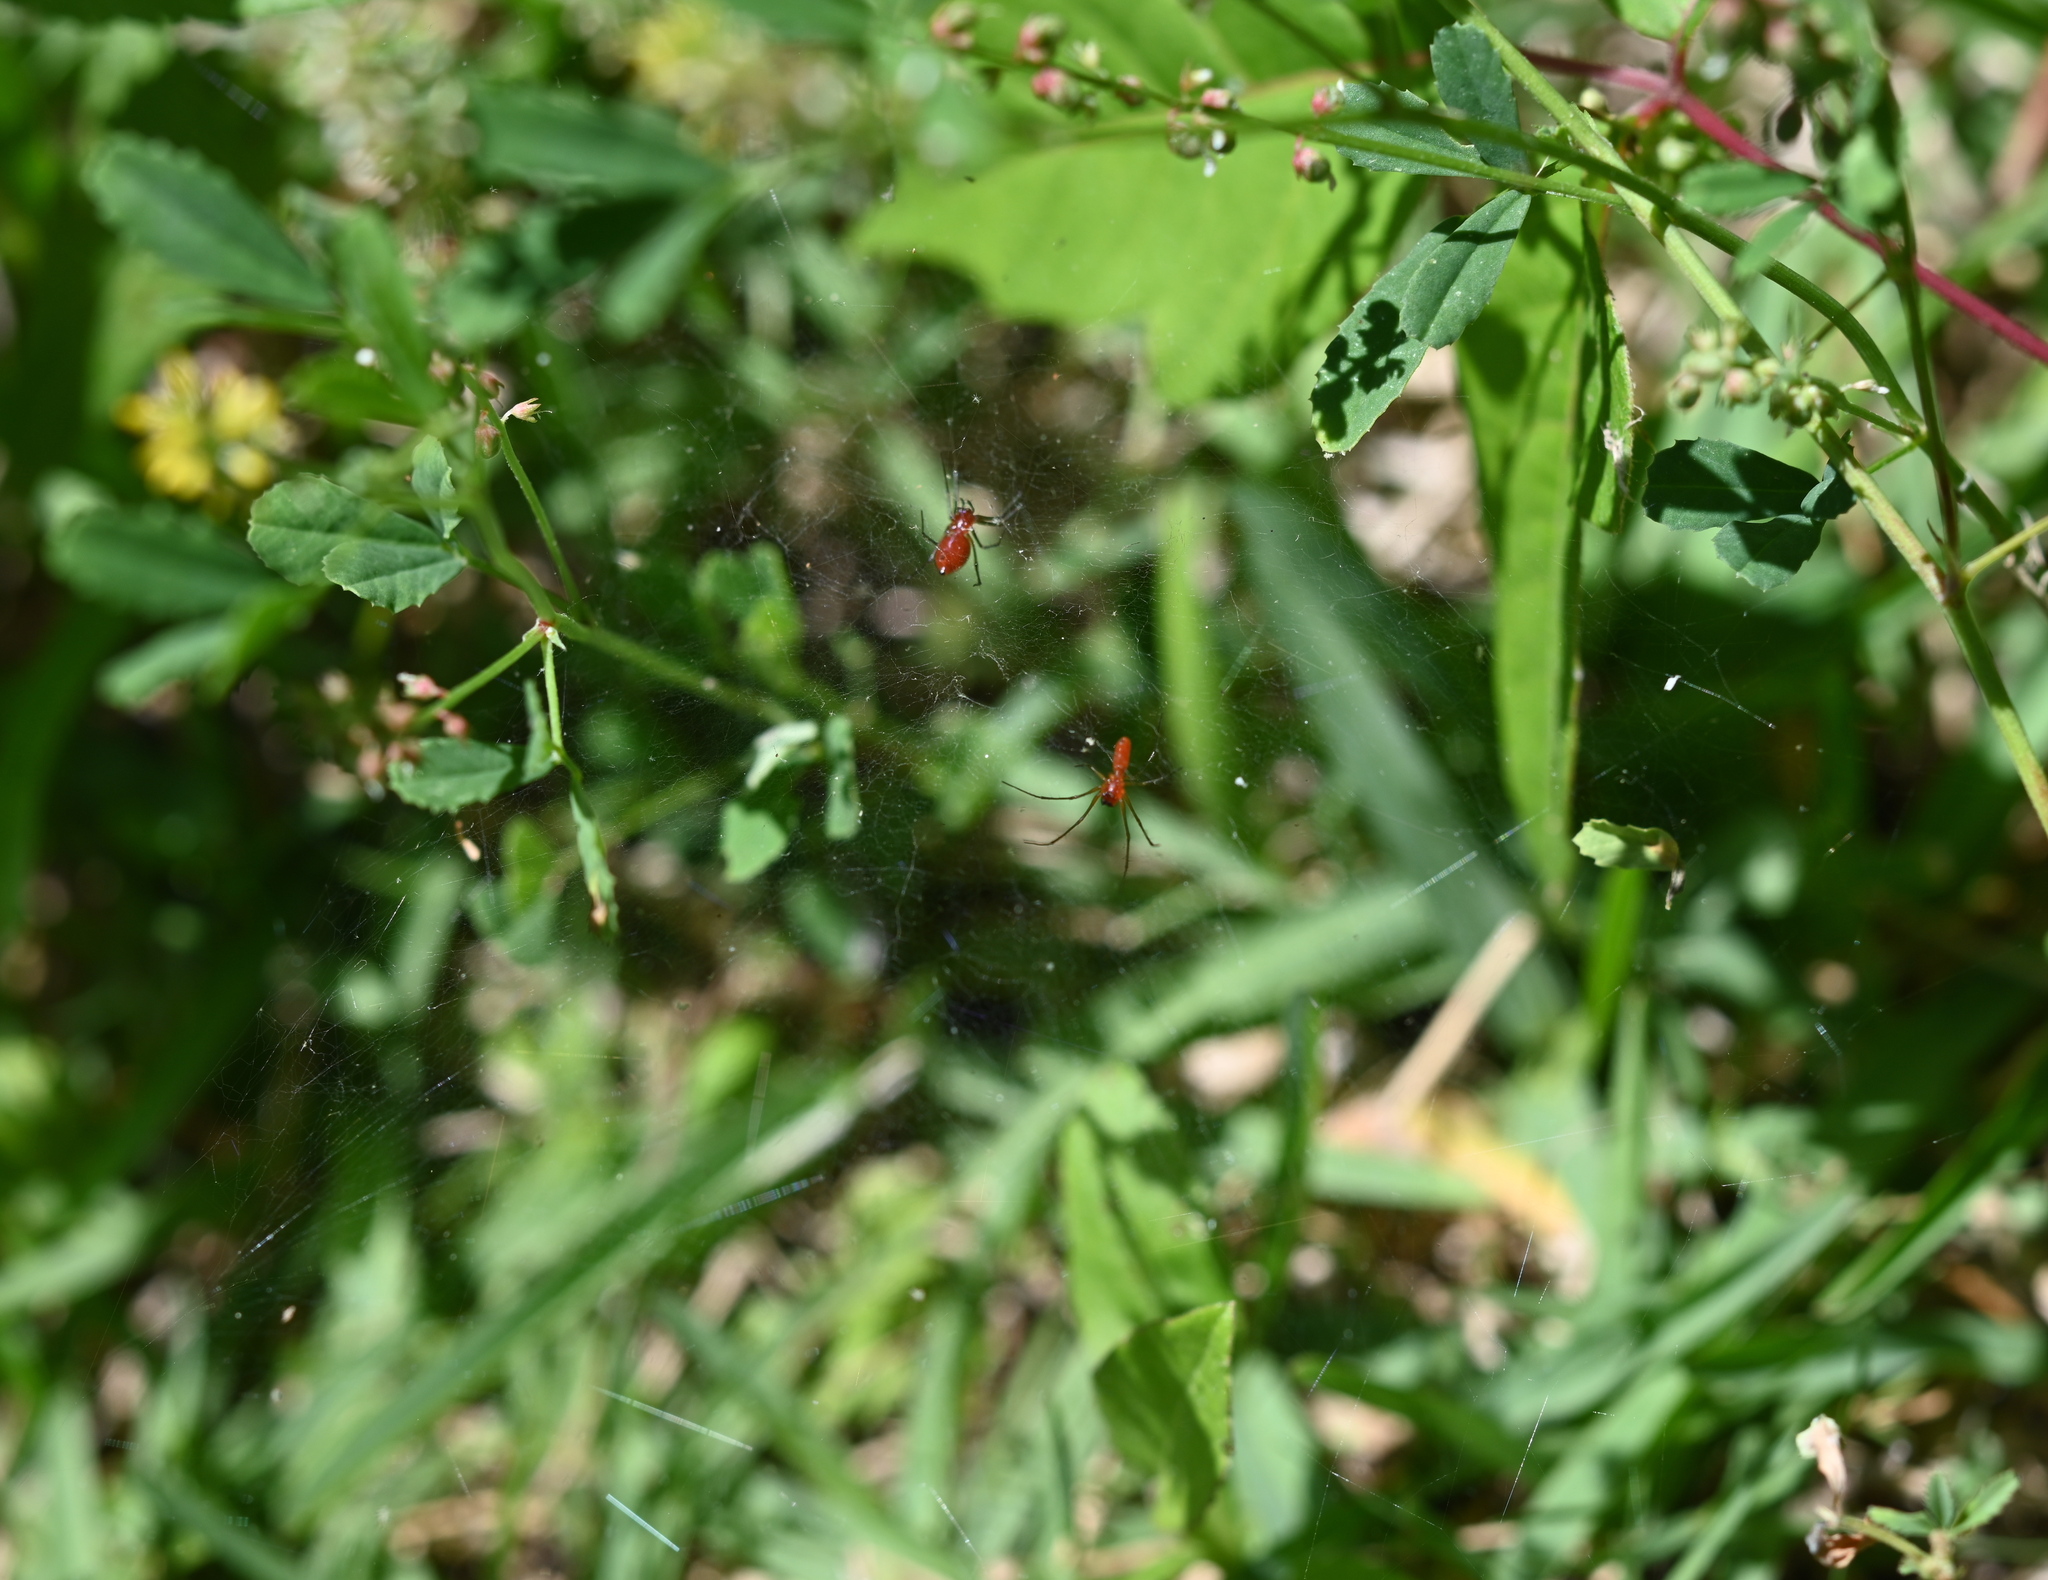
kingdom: Animalia
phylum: Arthropoda
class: Arachnida
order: Araneae
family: Linyphiidae
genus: Florinda
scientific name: Florinda coccinea
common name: Black-tailed red sheetweaver
